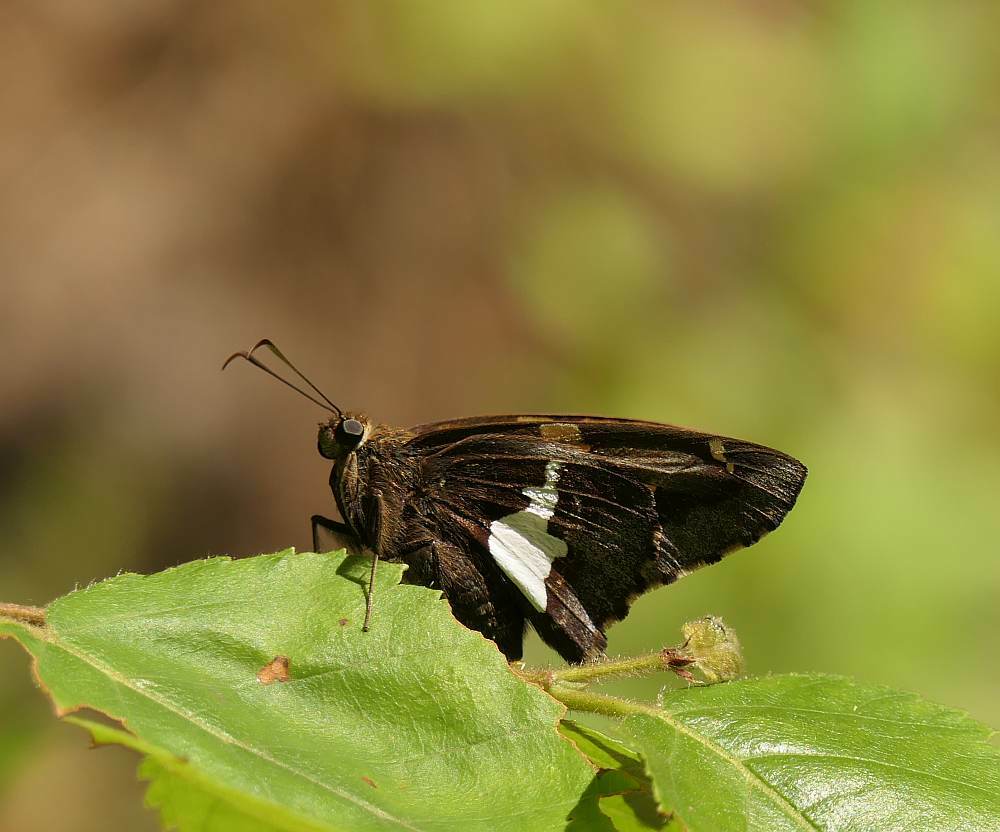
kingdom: Animalia
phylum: Arthropoda
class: Insecta
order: Lepidoptera
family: Hesperiidae
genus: Epargyreus
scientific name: Epargyreus clarus
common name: Silver-spotted skipper
